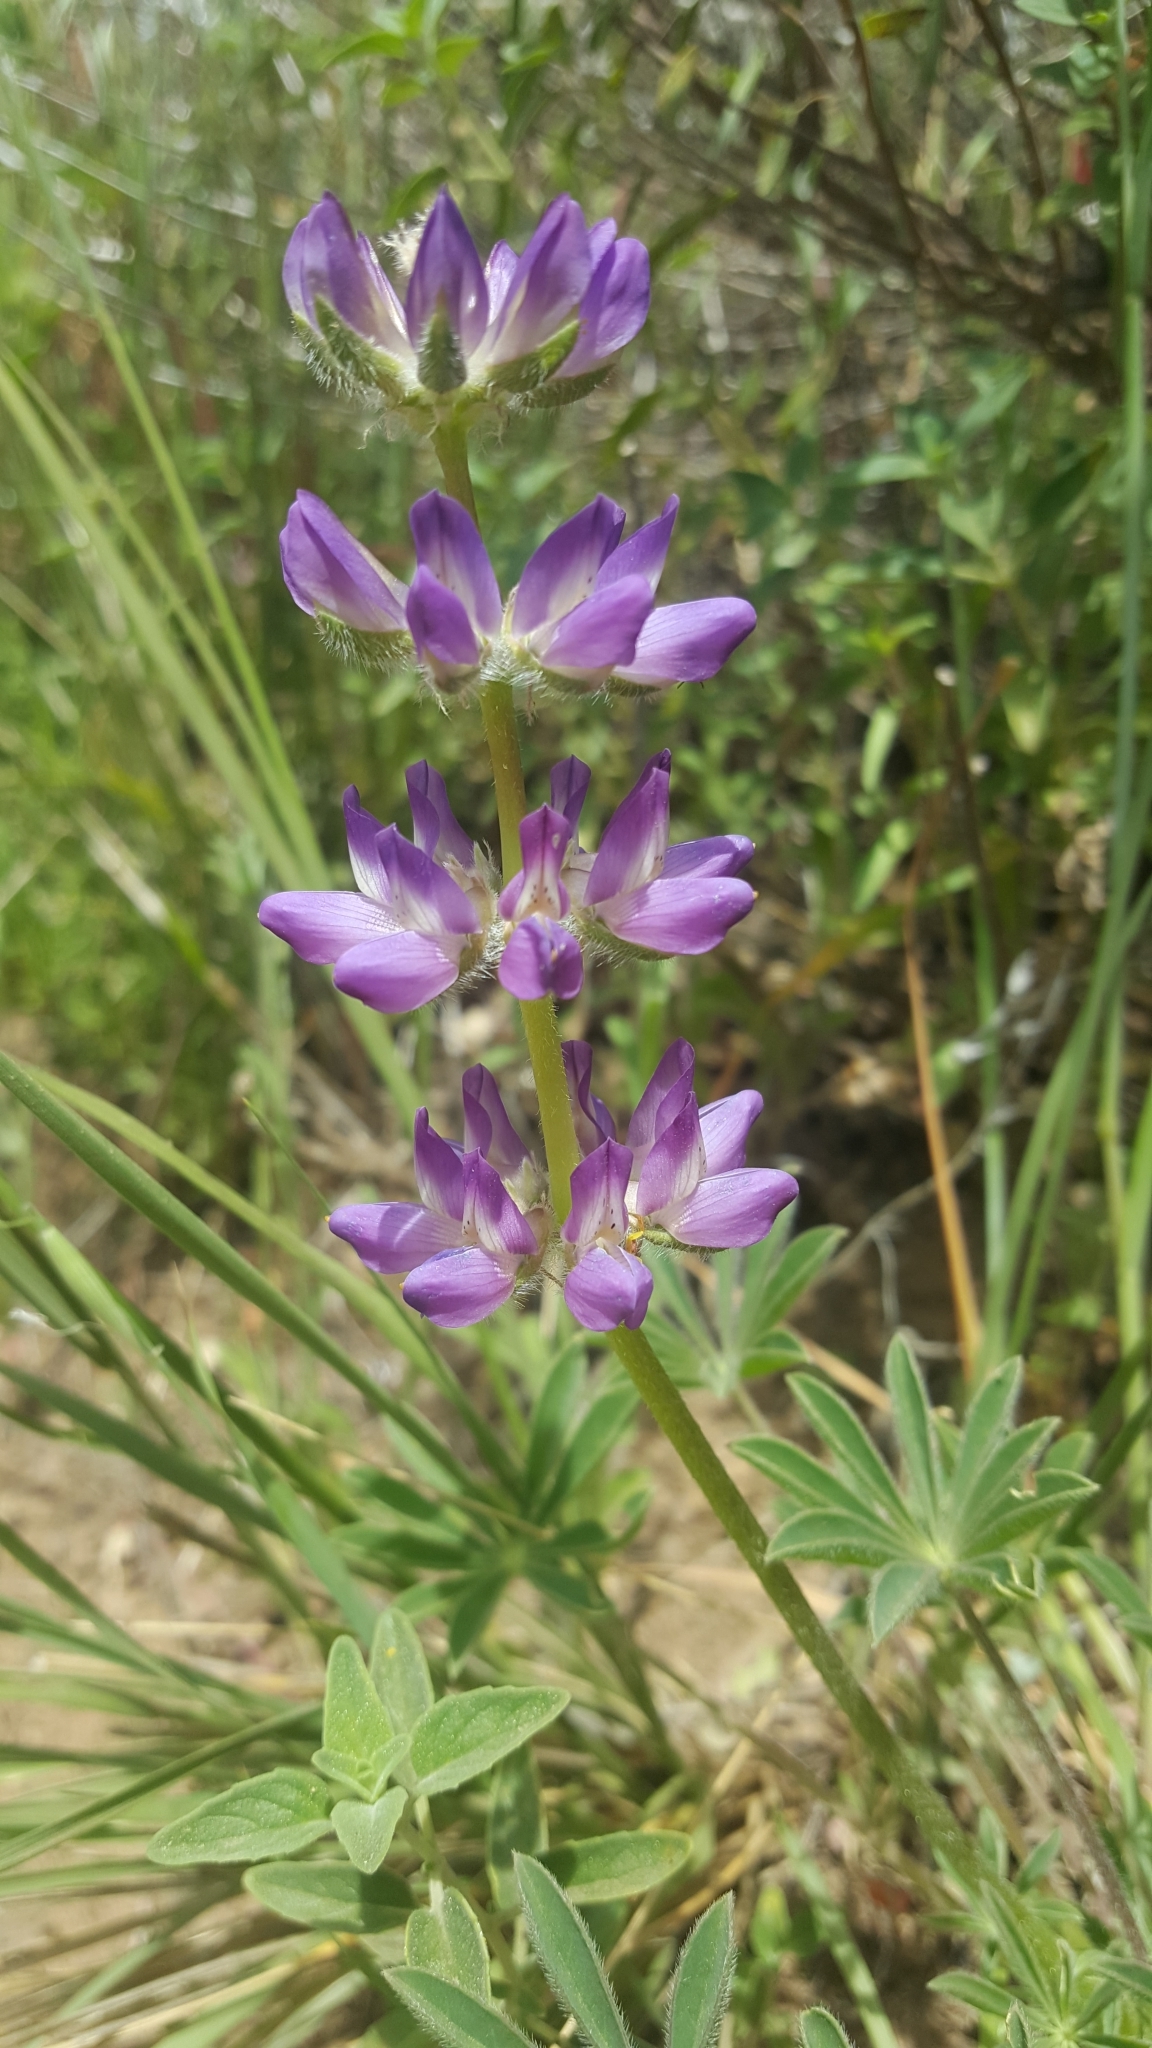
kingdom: Plantae
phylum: Tracheophyta
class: Magnoliopsida
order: Fabales
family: Fabaceae
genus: Lupinus
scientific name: Lupinus microcarpus
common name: Chick lupine
